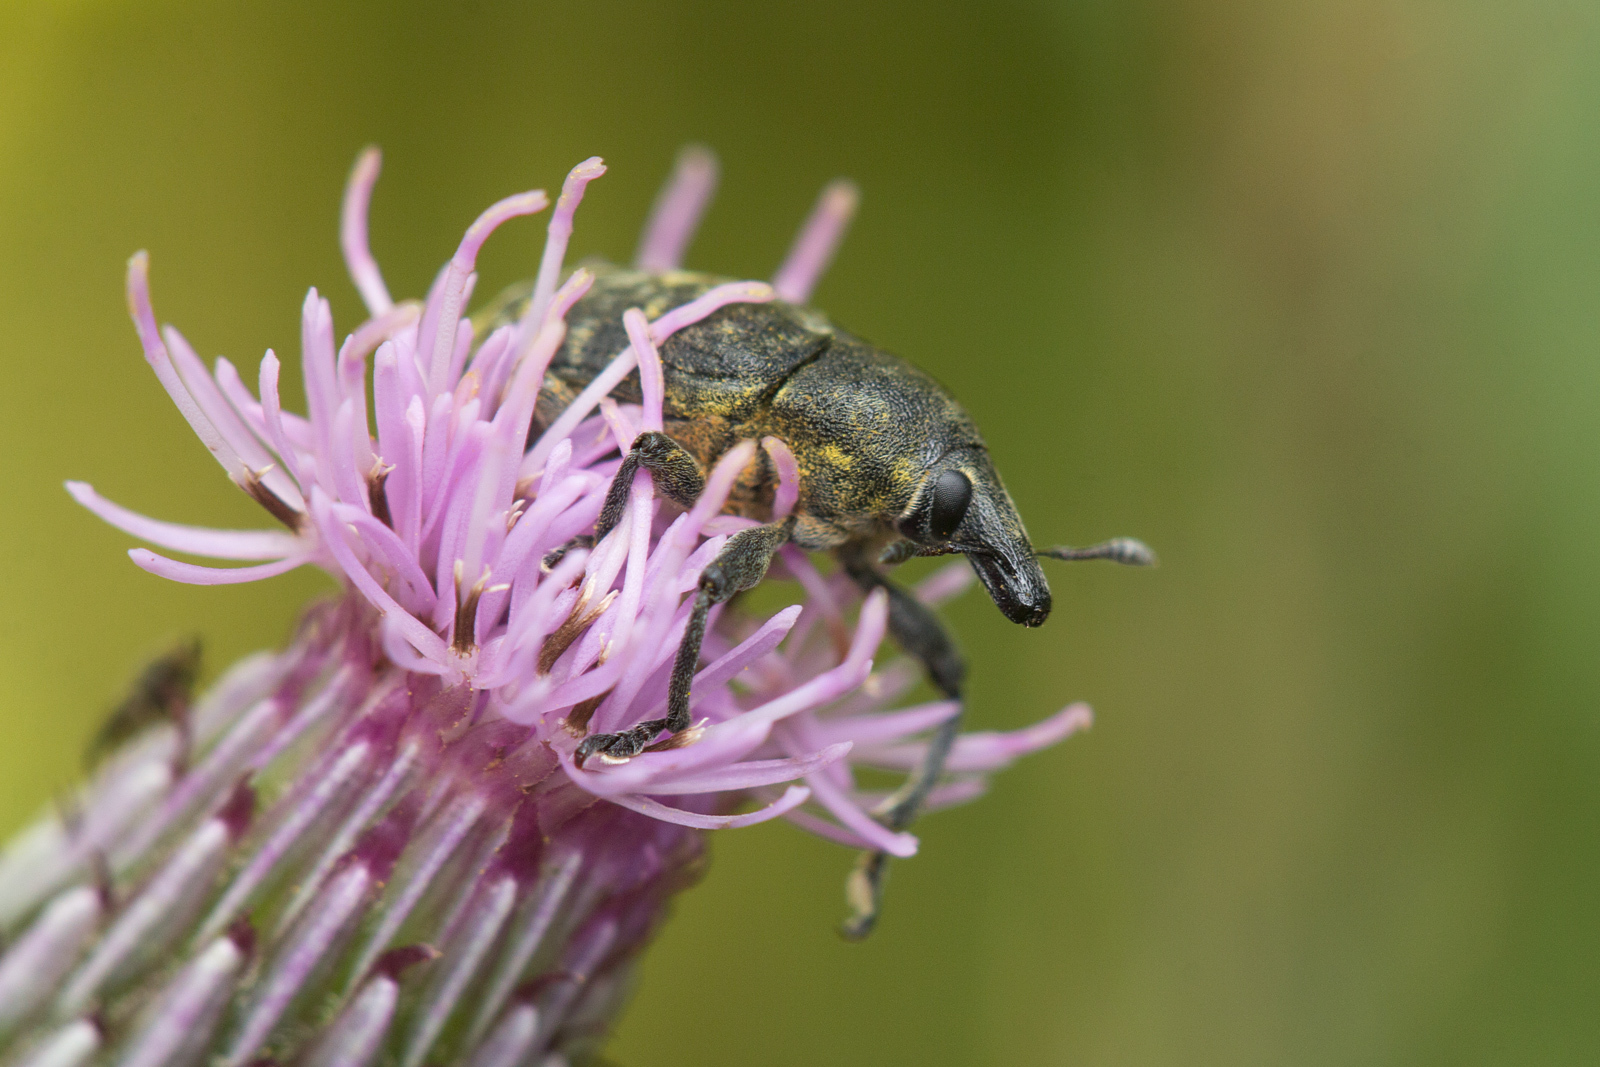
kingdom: Animalia
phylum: Arthropoda
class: Insecta
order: Coleoptera
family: Curculionidae
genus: Larinus
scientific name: Larinus turbinatus
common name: Weevil
